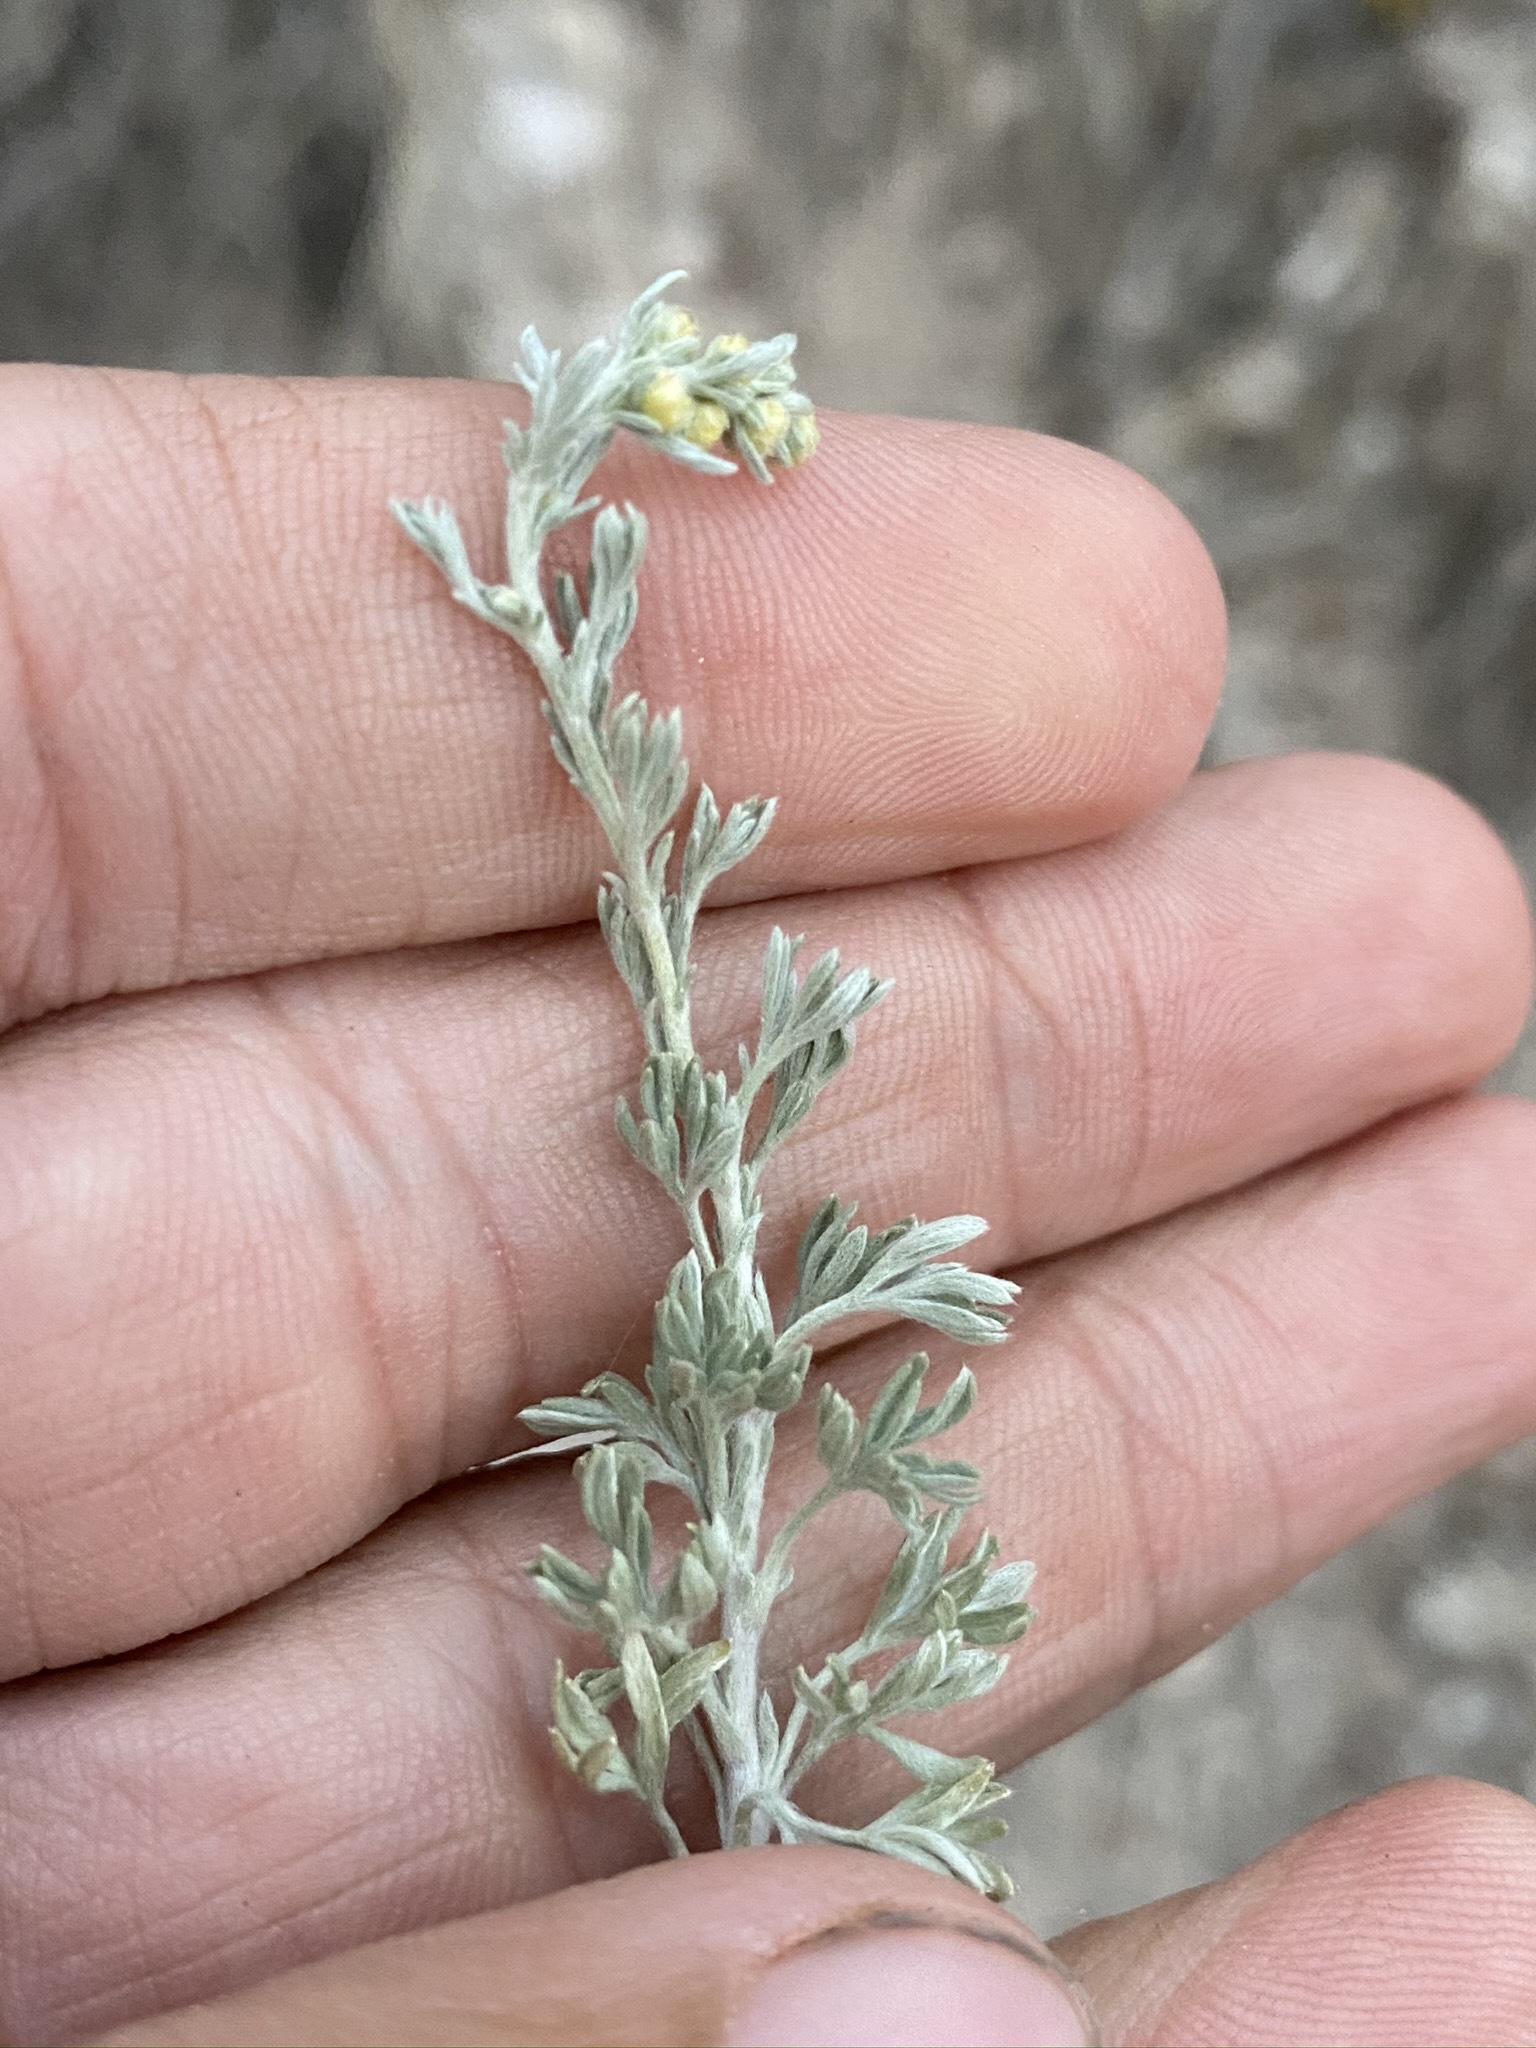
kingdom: Plantae
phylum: Tracheophyta
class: Magnoliopsida
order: Asterales
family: Asteraceae
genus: Artemisia
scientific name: Artemisia frigida
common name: Prairie sagewort
